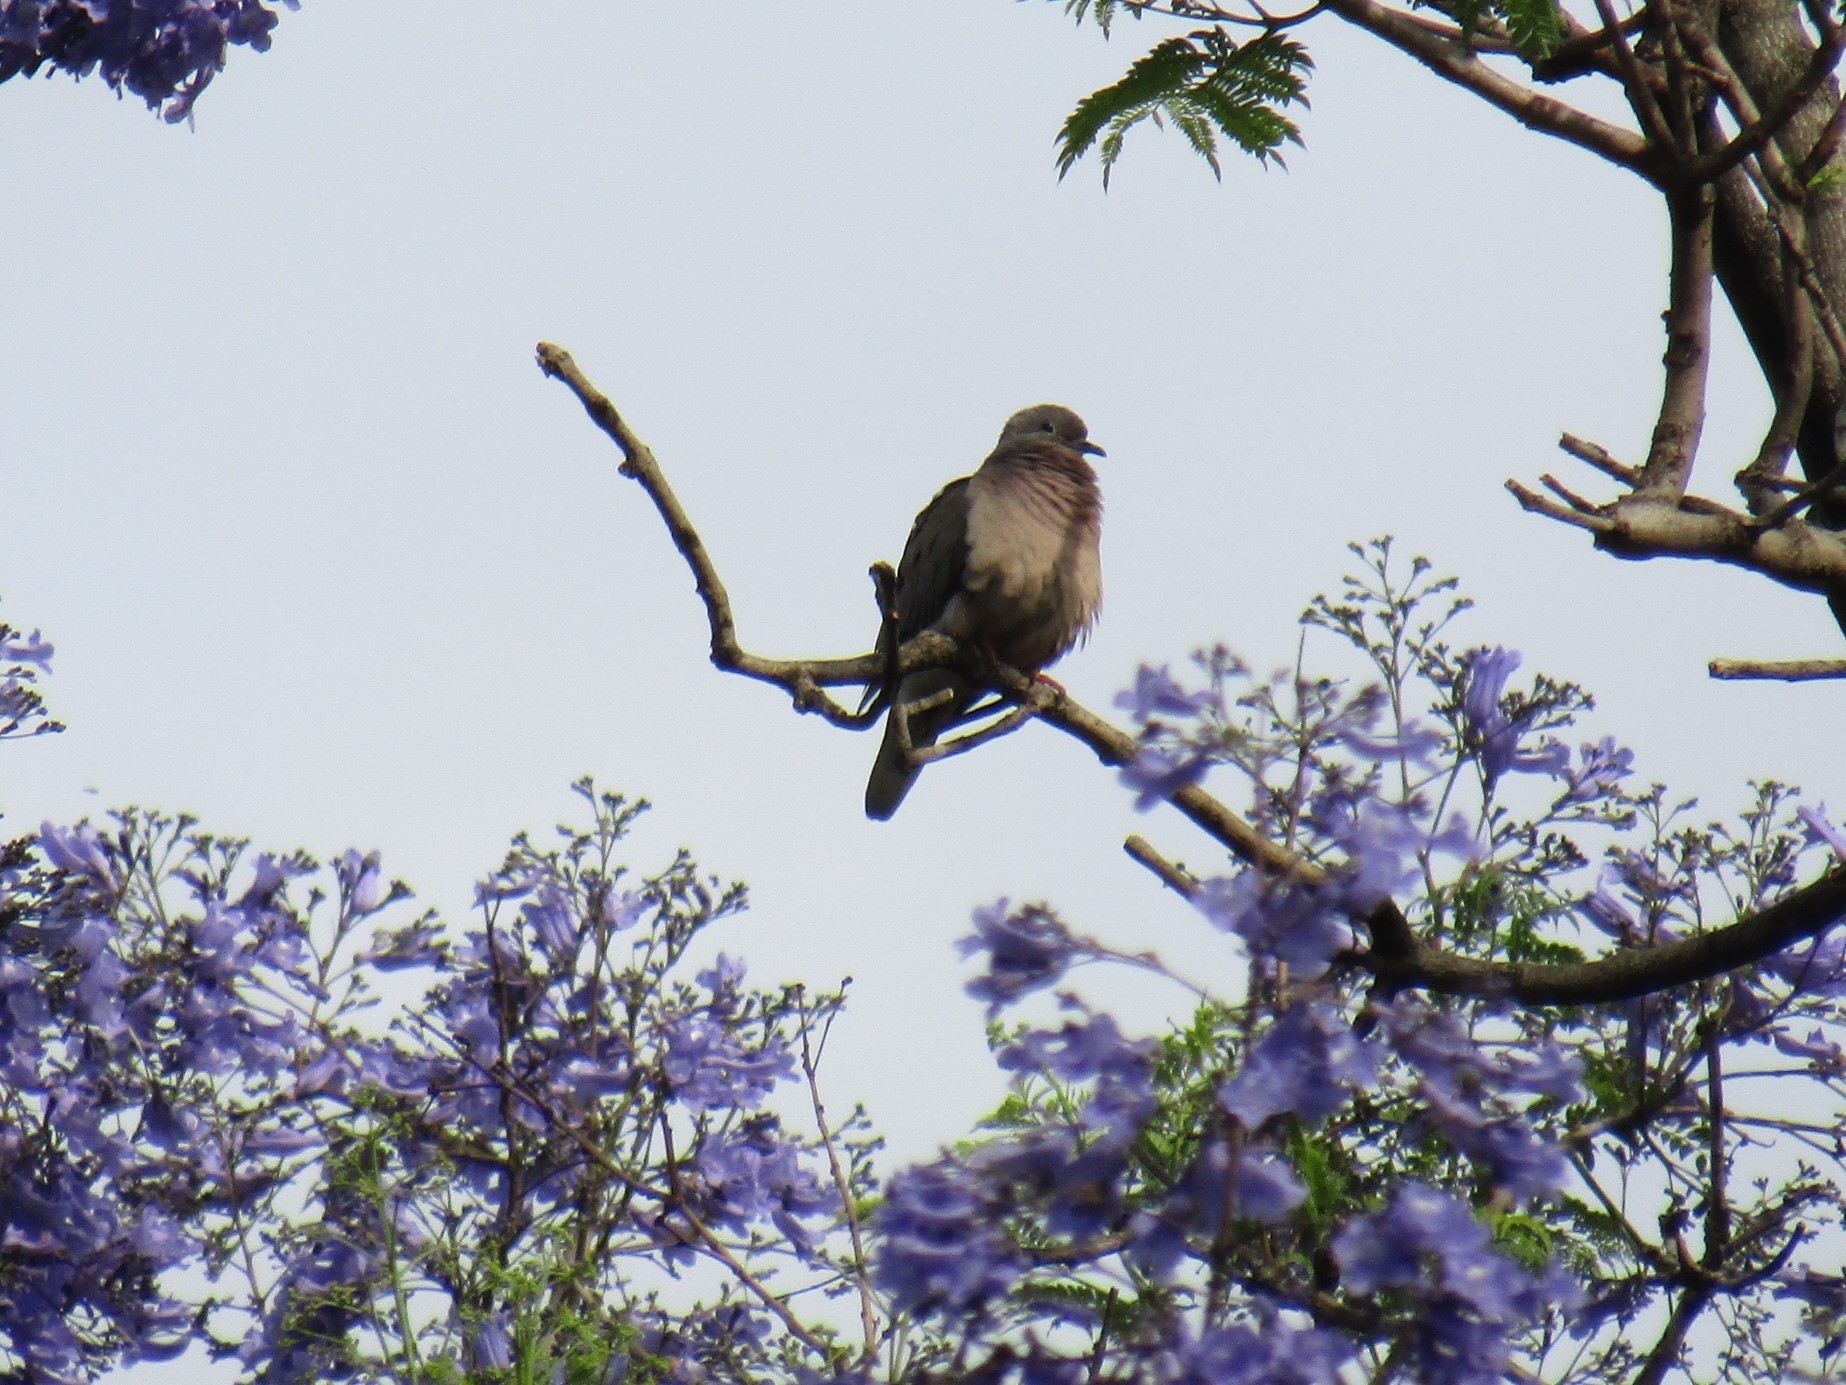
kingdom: Animalia
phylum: Chordata
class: Aves
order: Columbiformes
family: Columbidae
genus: Zenaida
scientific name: Zenaida auriculata
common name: Eared dove
